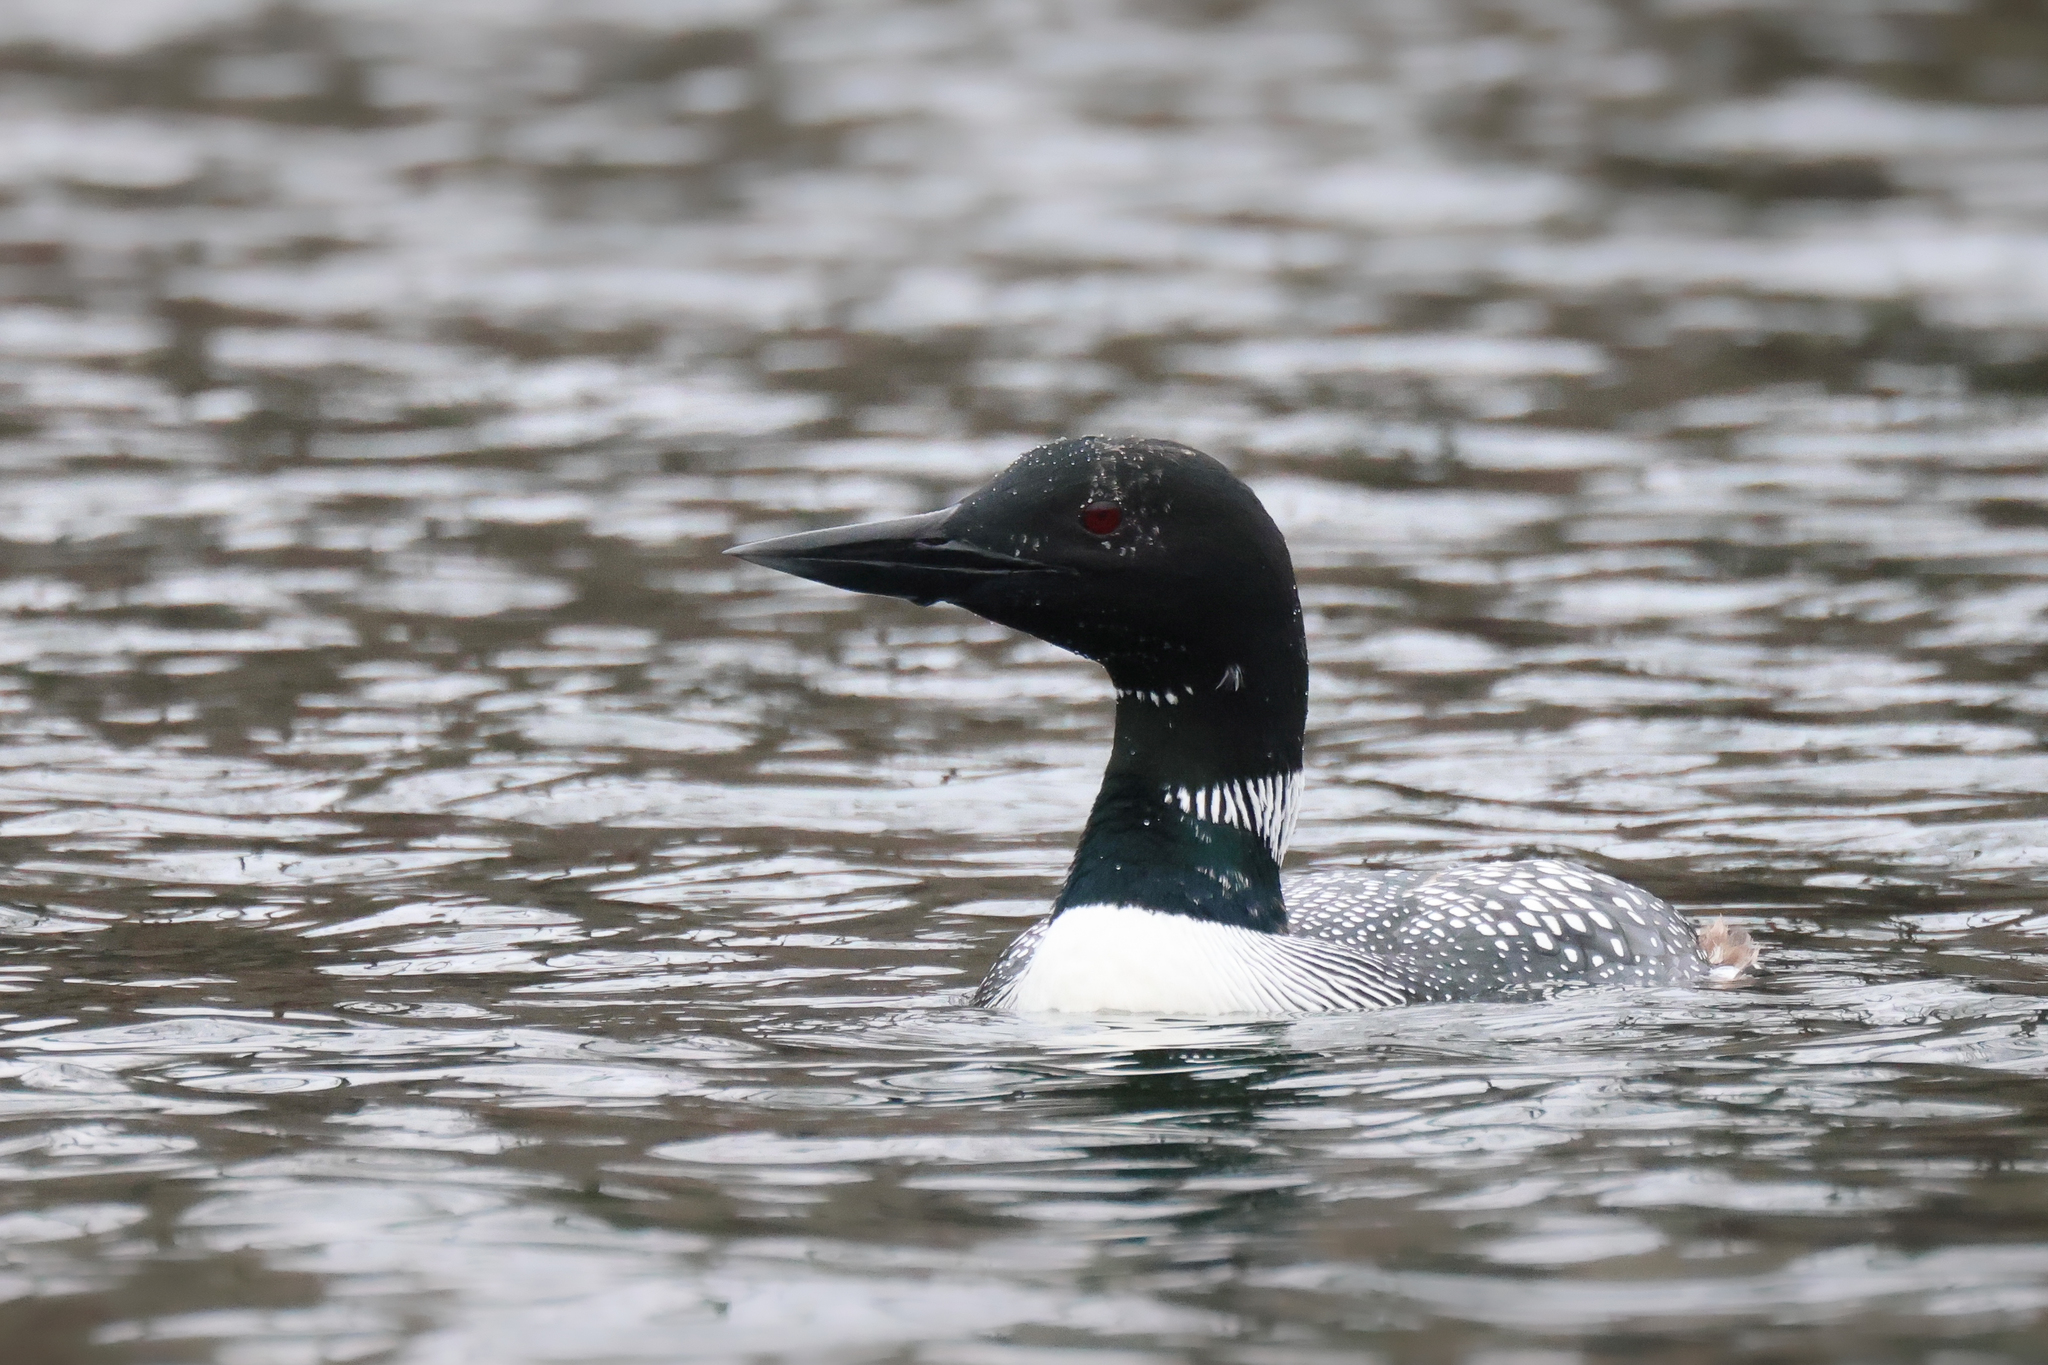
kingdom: Animalia
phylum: Chordata
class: Aves
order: Gaviiformes
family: Gaviidae
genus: Gavia
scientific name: Gavia immer
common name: Common loon
